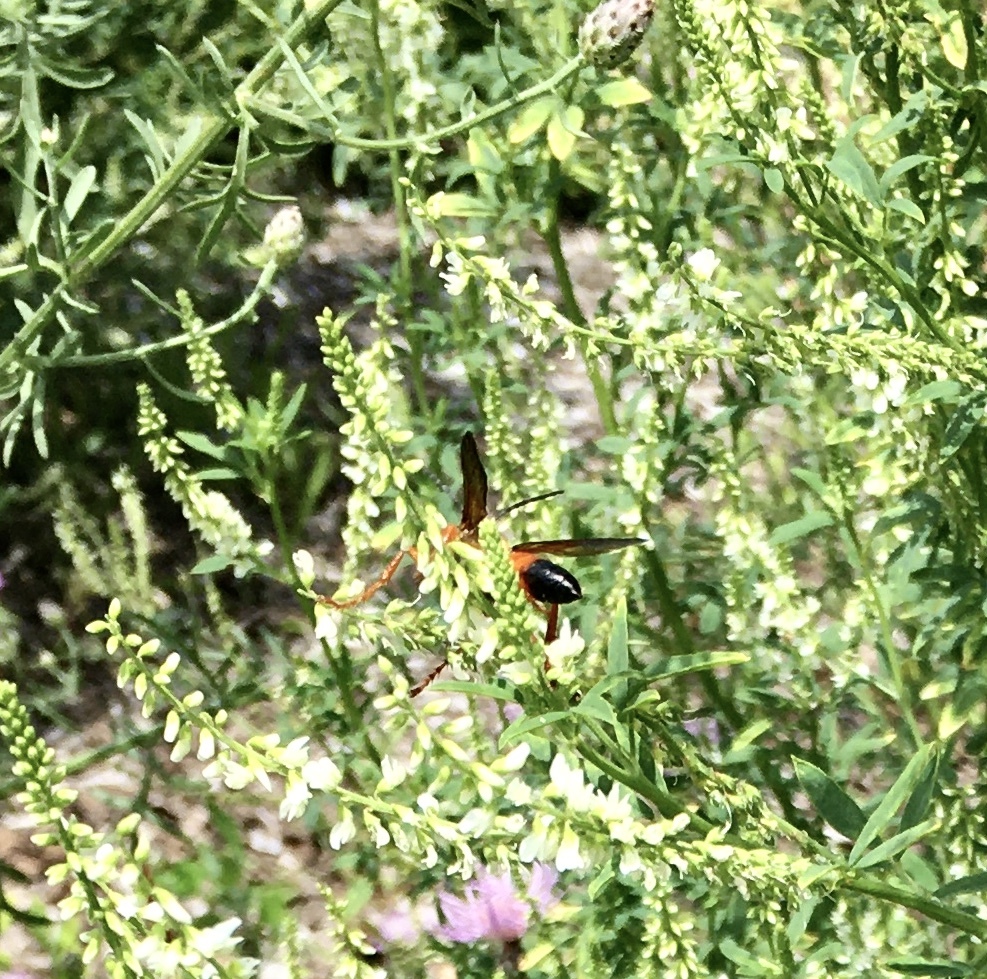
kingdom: Animalia
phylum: Arthropoda
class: Insecta
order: Hymenoptera
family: Sphecidae
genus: Sphex
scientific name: Sphex ichneumoneus
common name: Great golden digger wasp
